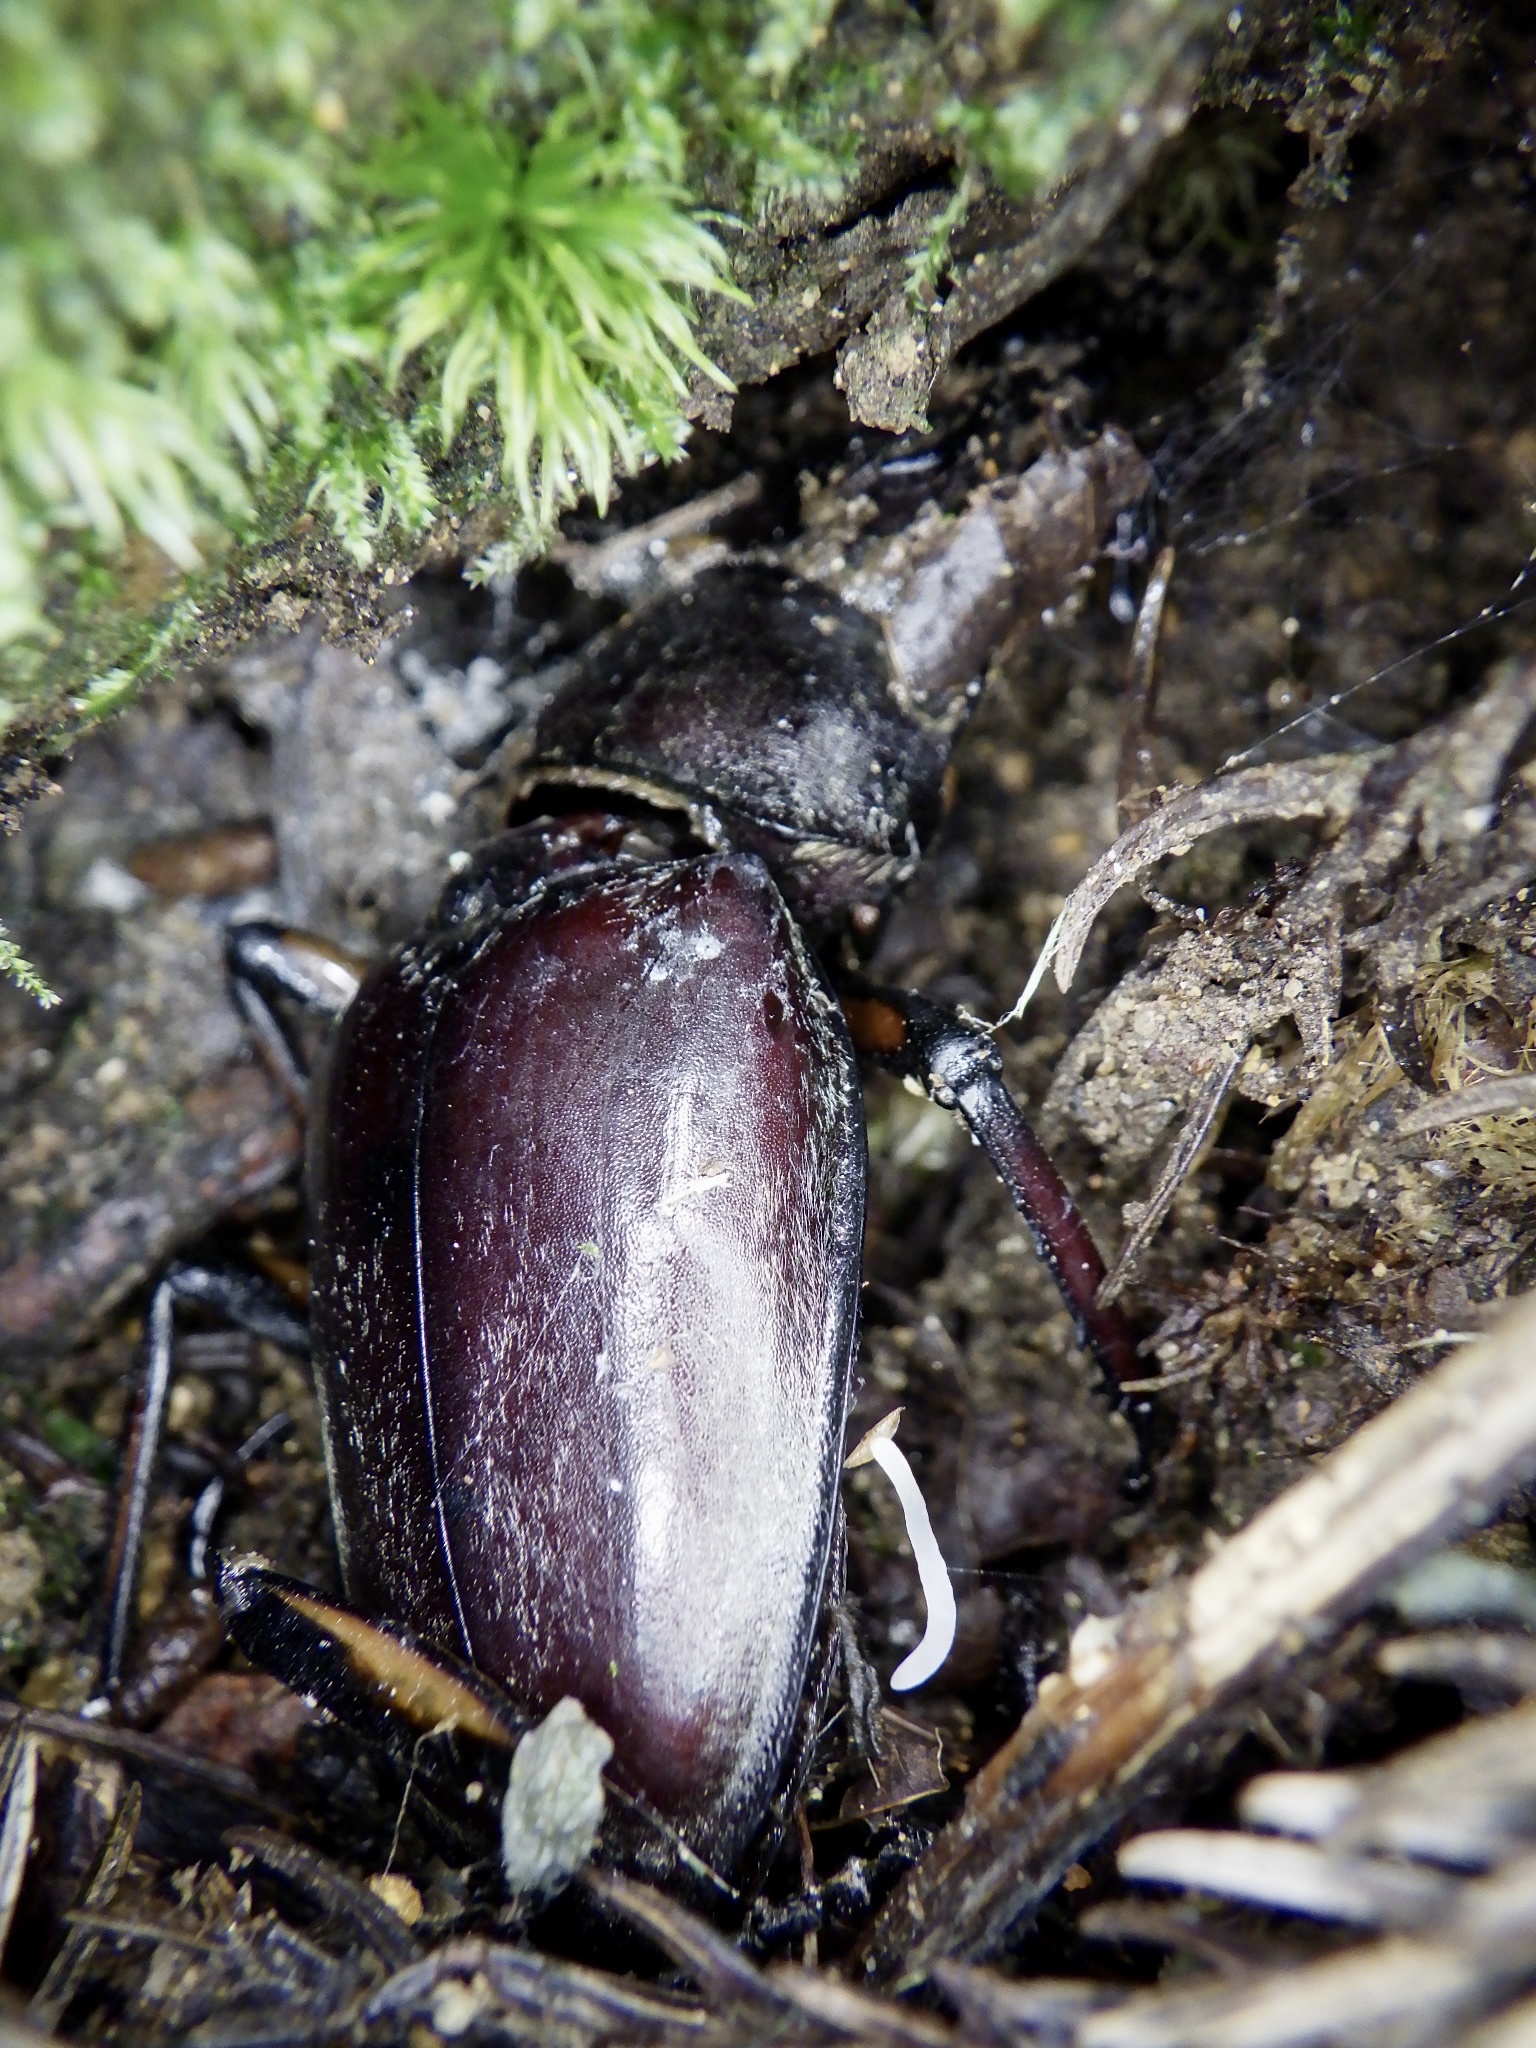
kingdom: Animalia
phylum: Arthropoda
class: Insecta
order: Coleoptera
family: Lucanidae
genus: Prosopocoilus
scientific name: Prosopocoilus inclinatus
